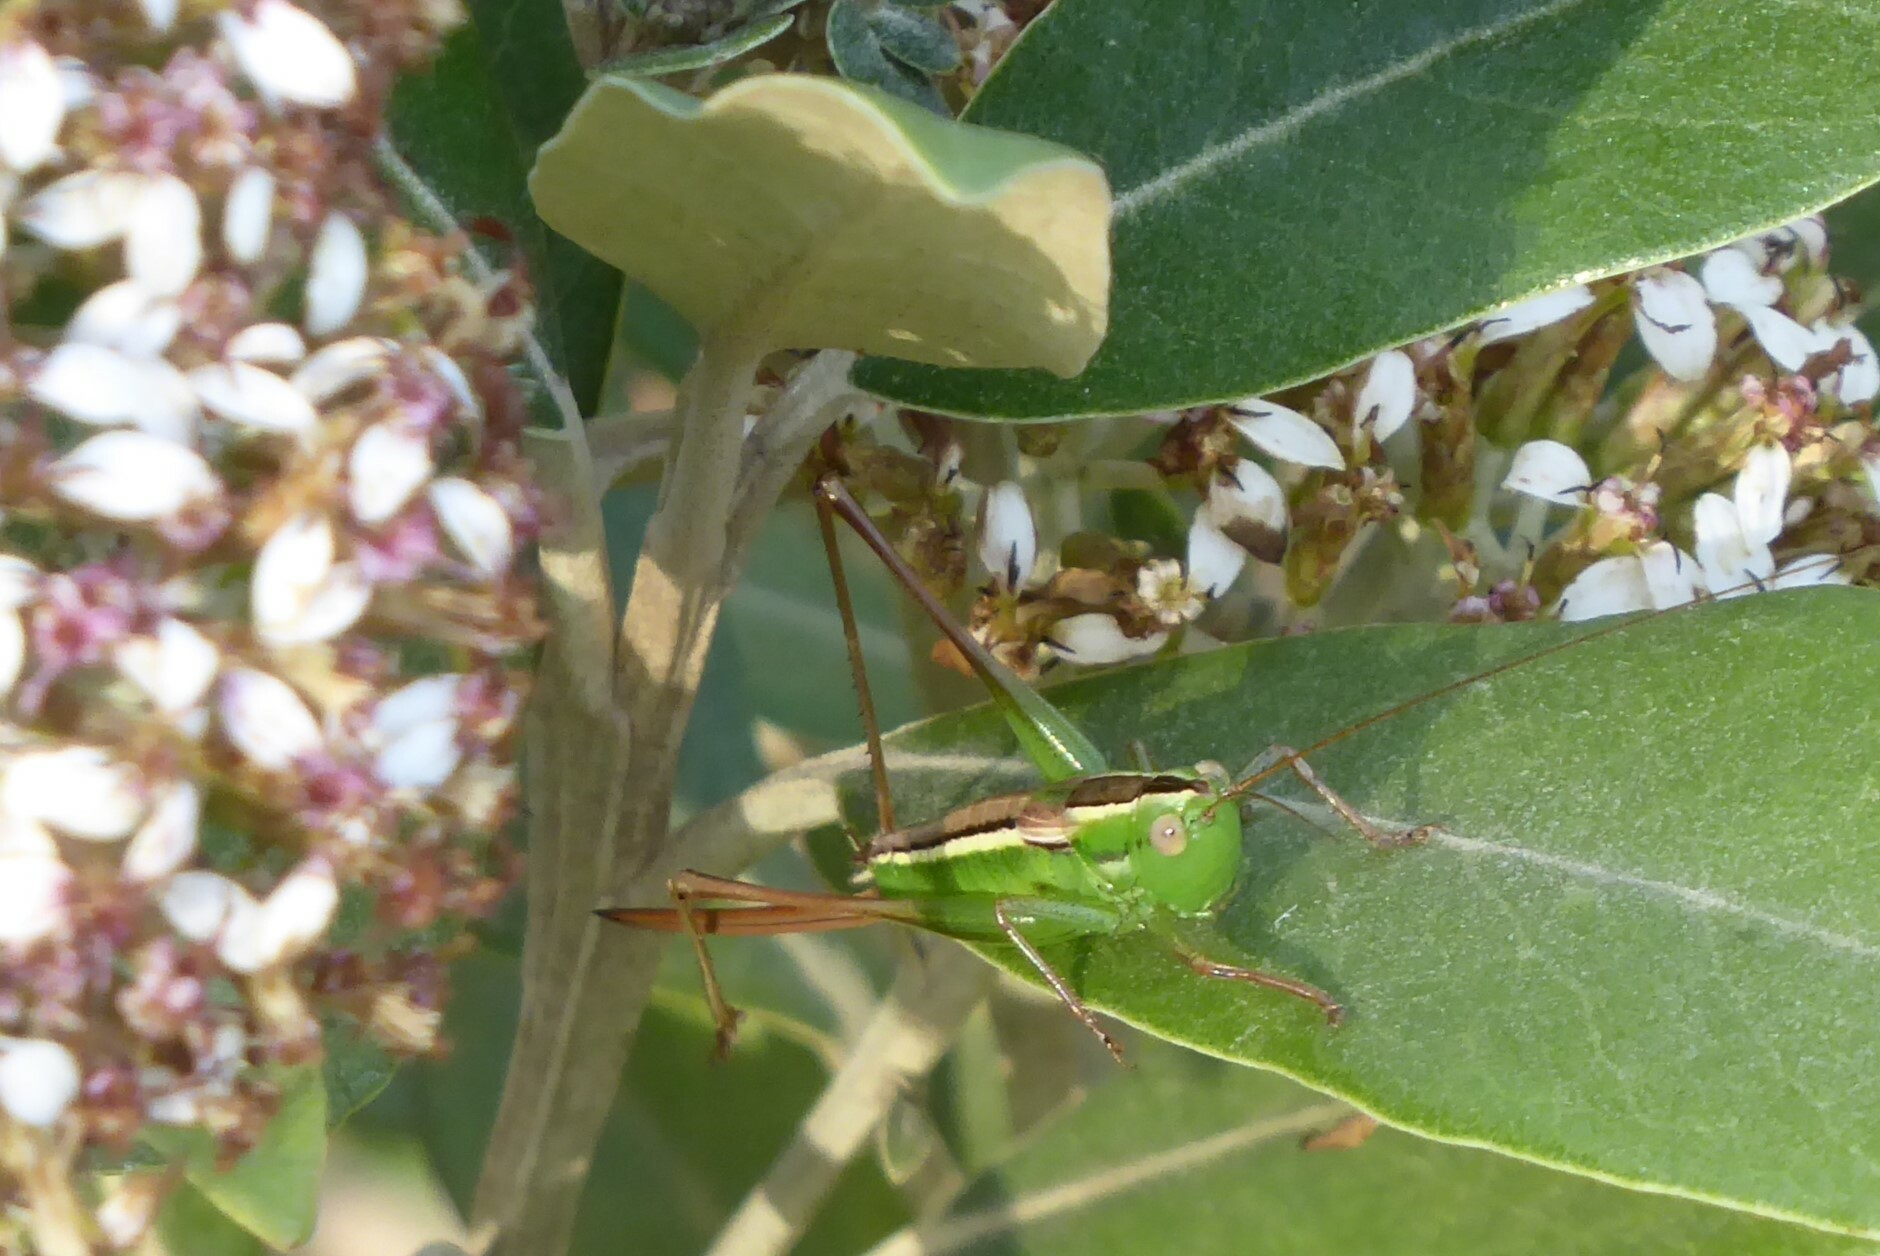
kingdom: Animalia
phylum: Arthropoda
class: Insecta
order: Orthoptera
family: Tettigoniidae
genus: Conocephalus
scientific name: Conocephalus bilineatus
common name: Small meadow katydid
